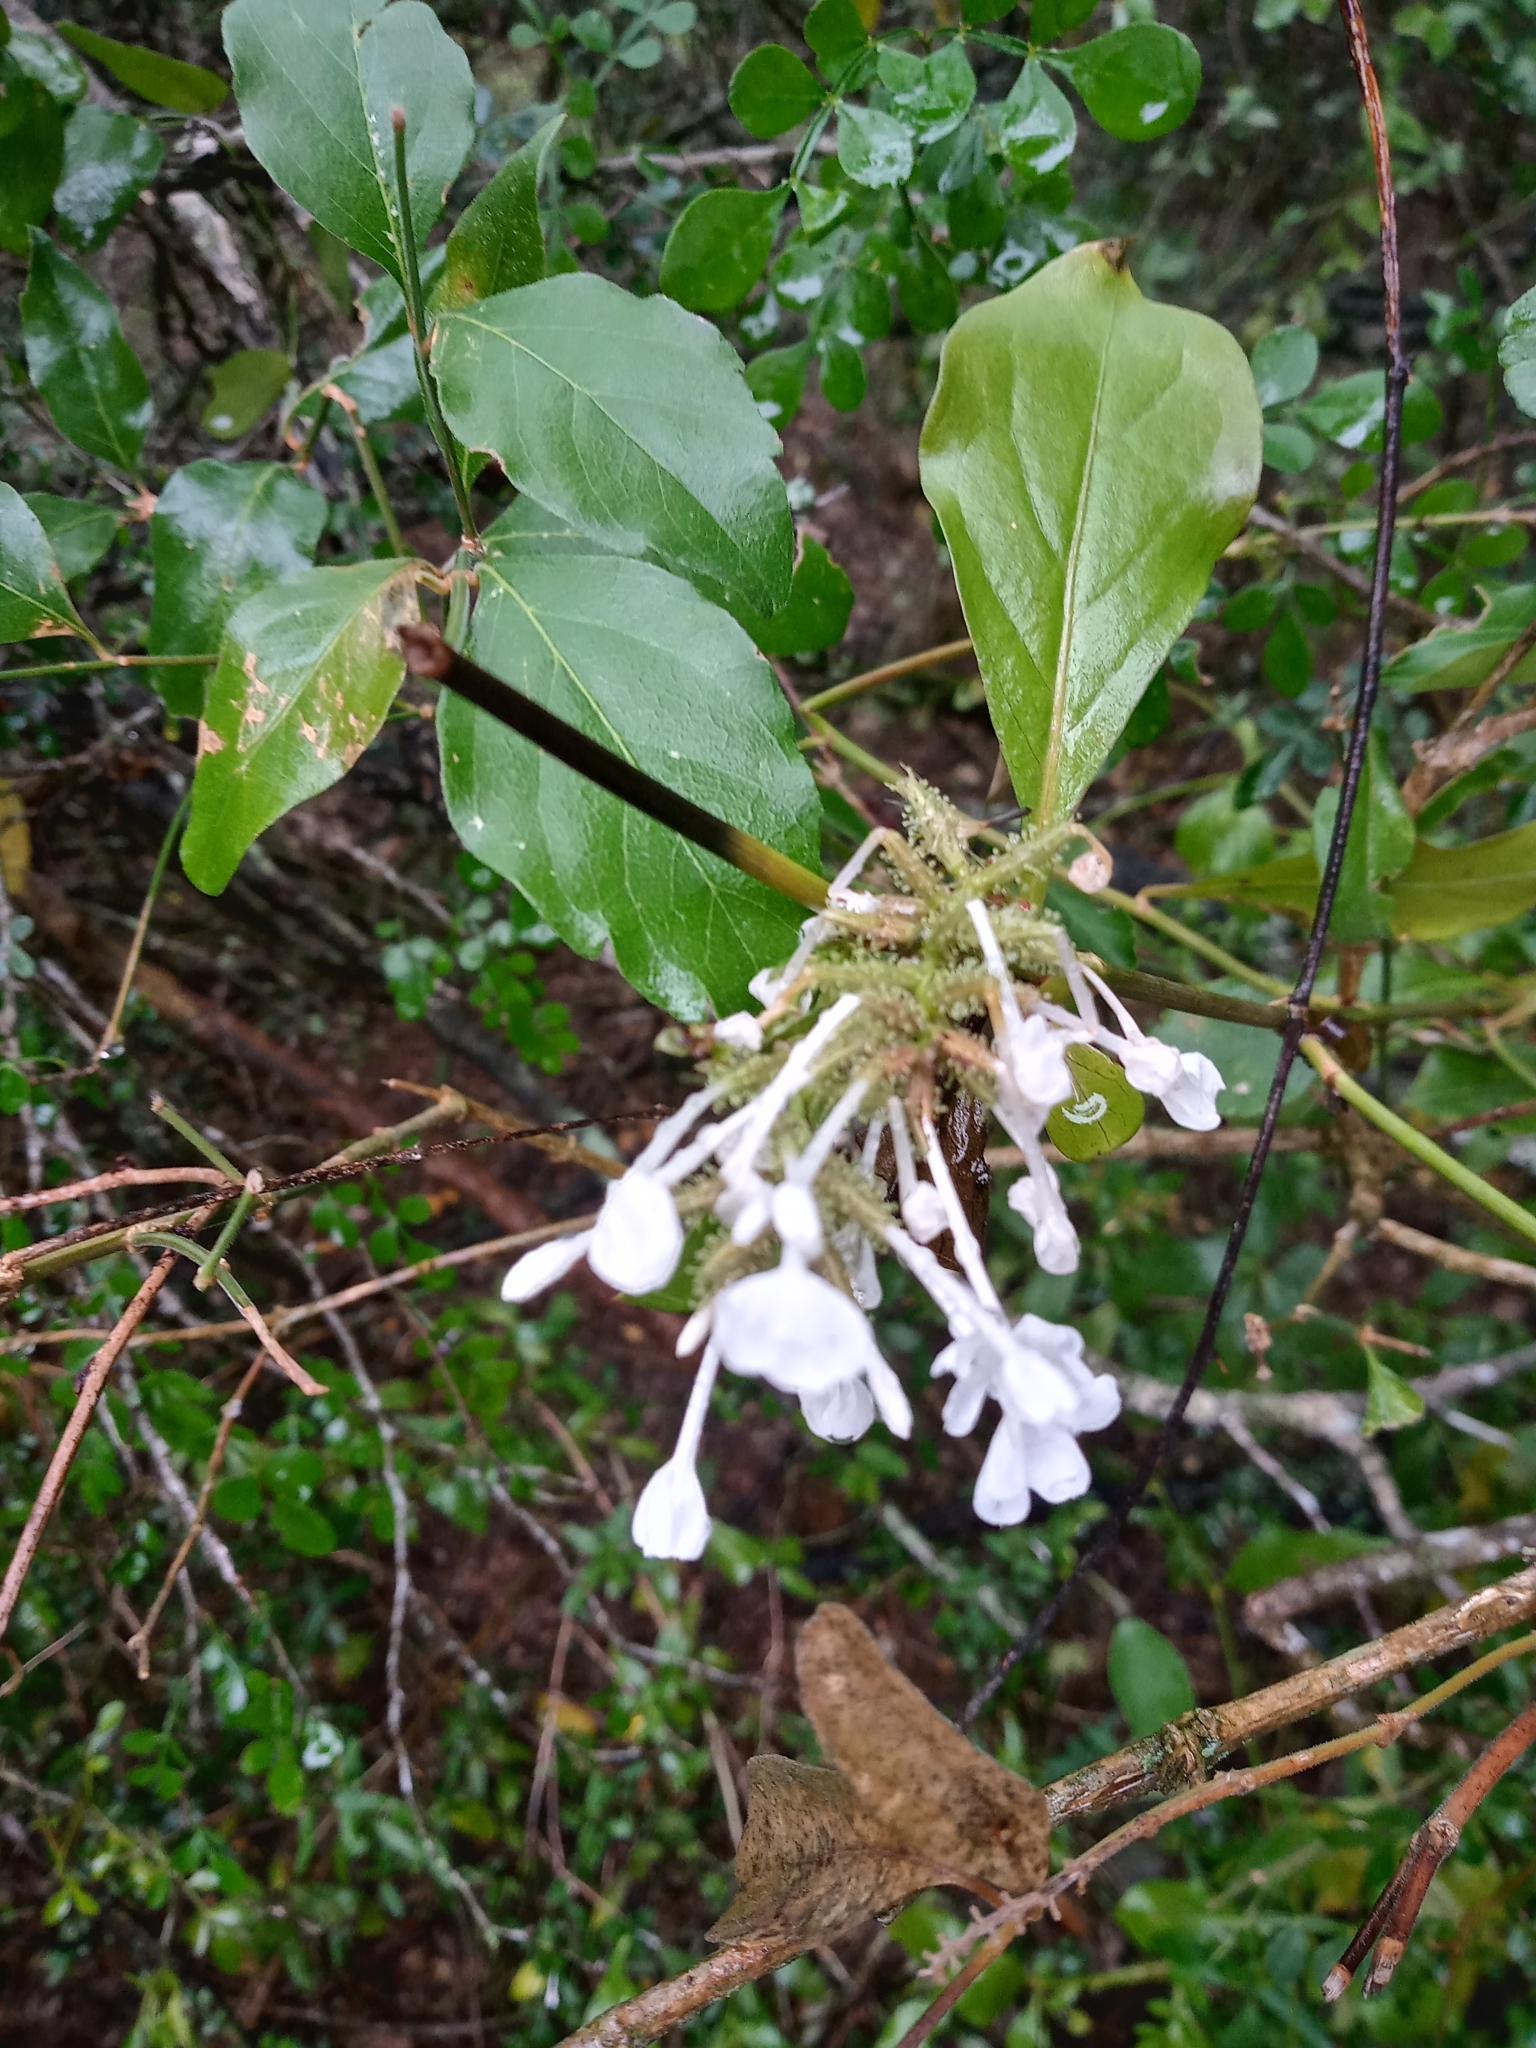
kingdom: Plantae
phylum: Tracheophyta
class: Magnoliopsida
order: Caryophyllales
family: Plumbaginaceae
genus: Plumbago
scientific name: Plumbago zeylanica
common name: Doctorbush
